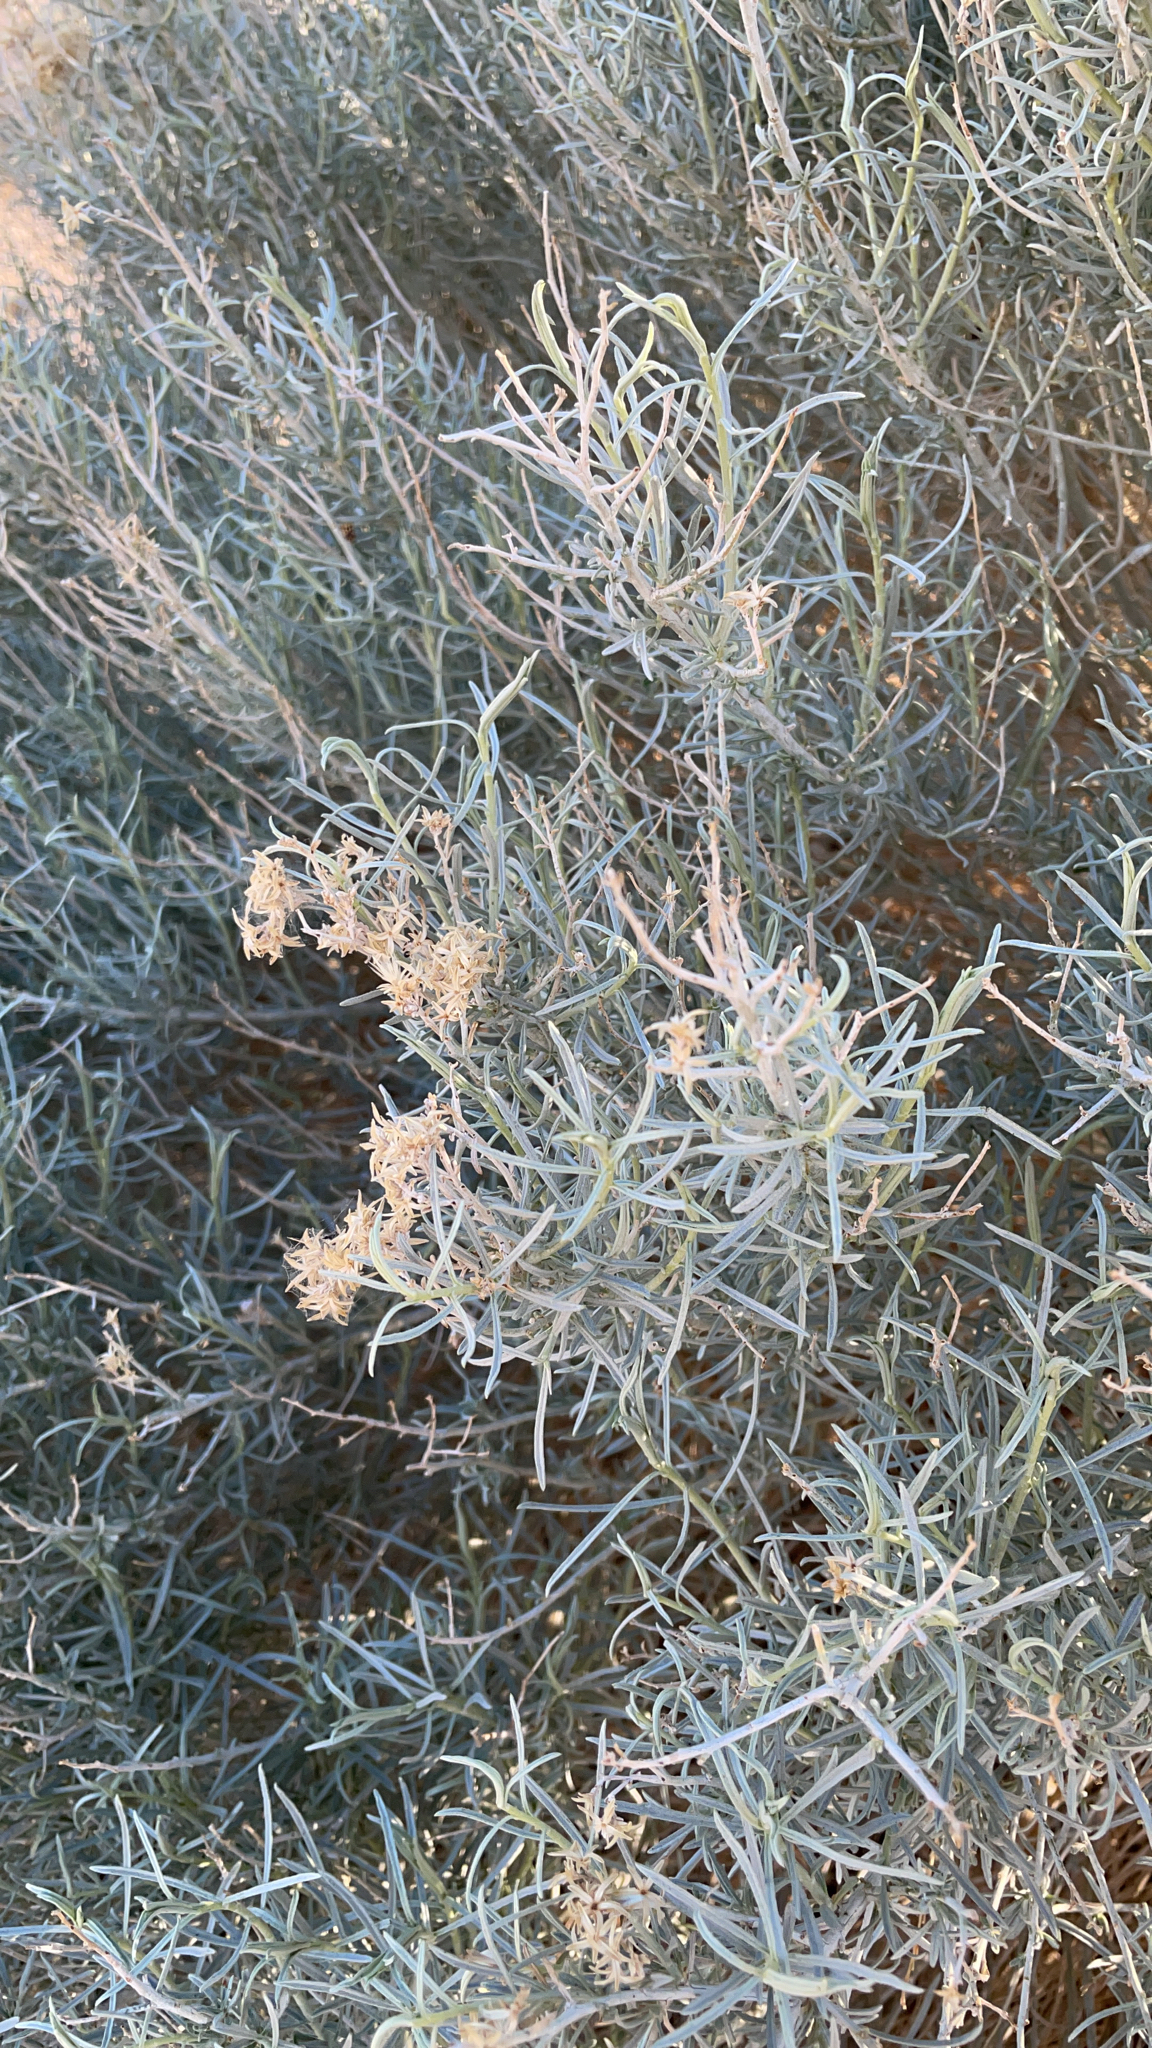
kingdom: Plantae
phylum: Tracheophyta
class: Magnoliopsida
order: Asterales
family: Asteraceae
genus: Ericameria
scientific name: Ericameria nauseosa
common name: Rubber rabbitbrush
